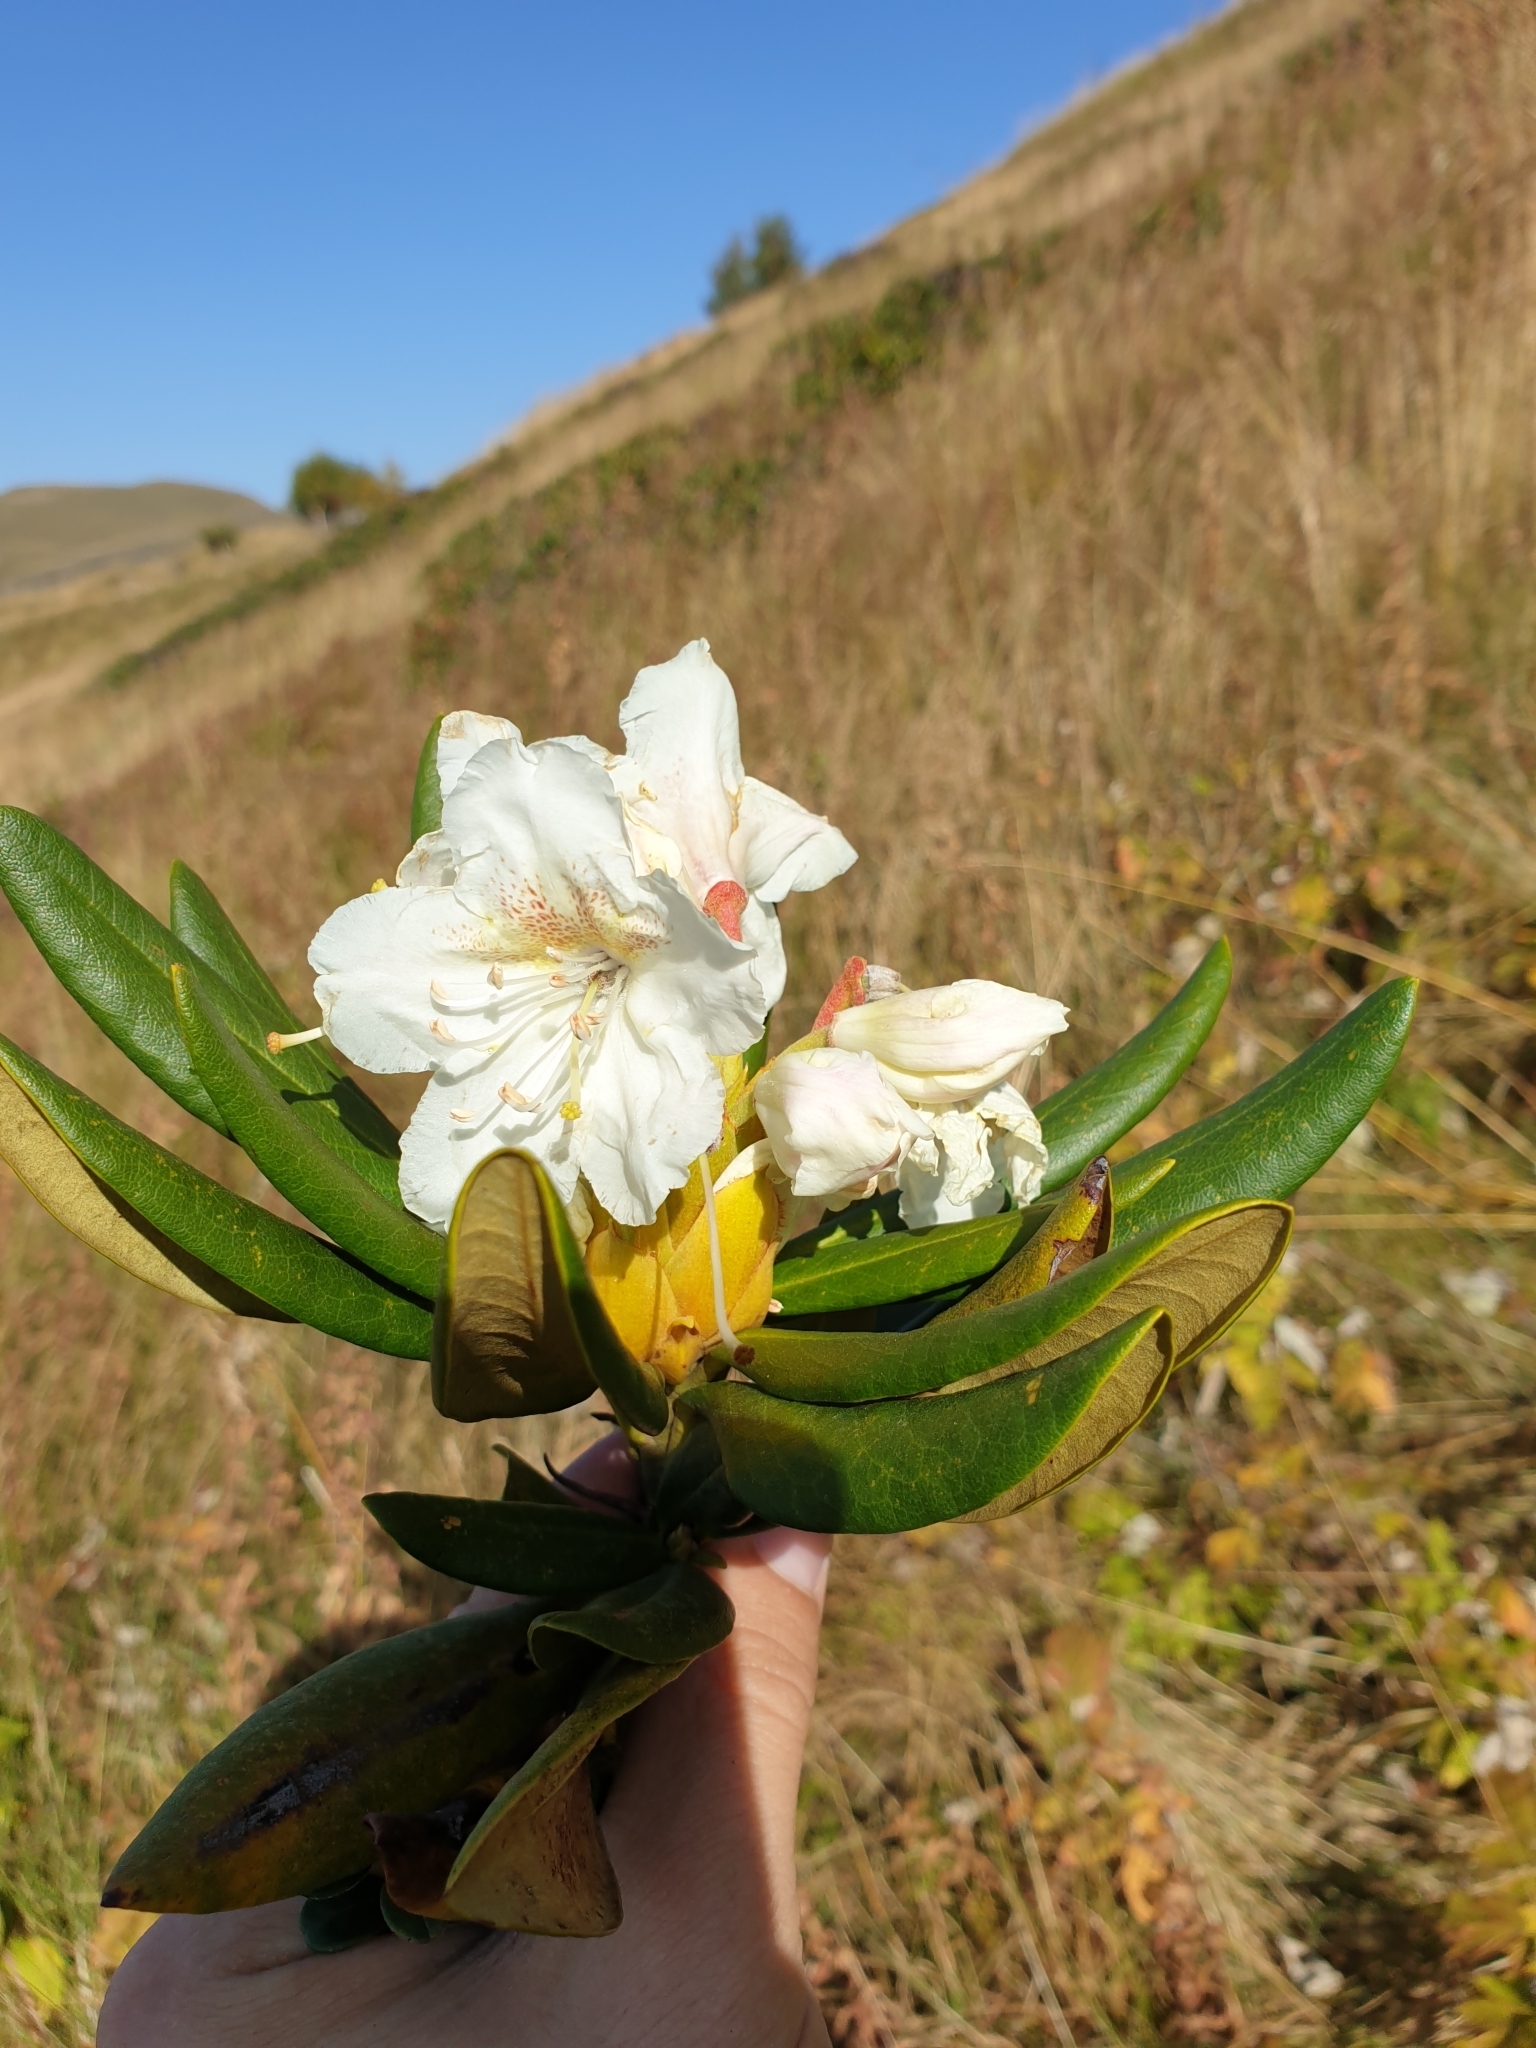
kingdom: Plantae
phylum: Tracheophyta
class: Magnoliopsida
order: Ericales
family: Ericaceae
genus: Rhododendron
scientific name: Rhododendron caucasicum
